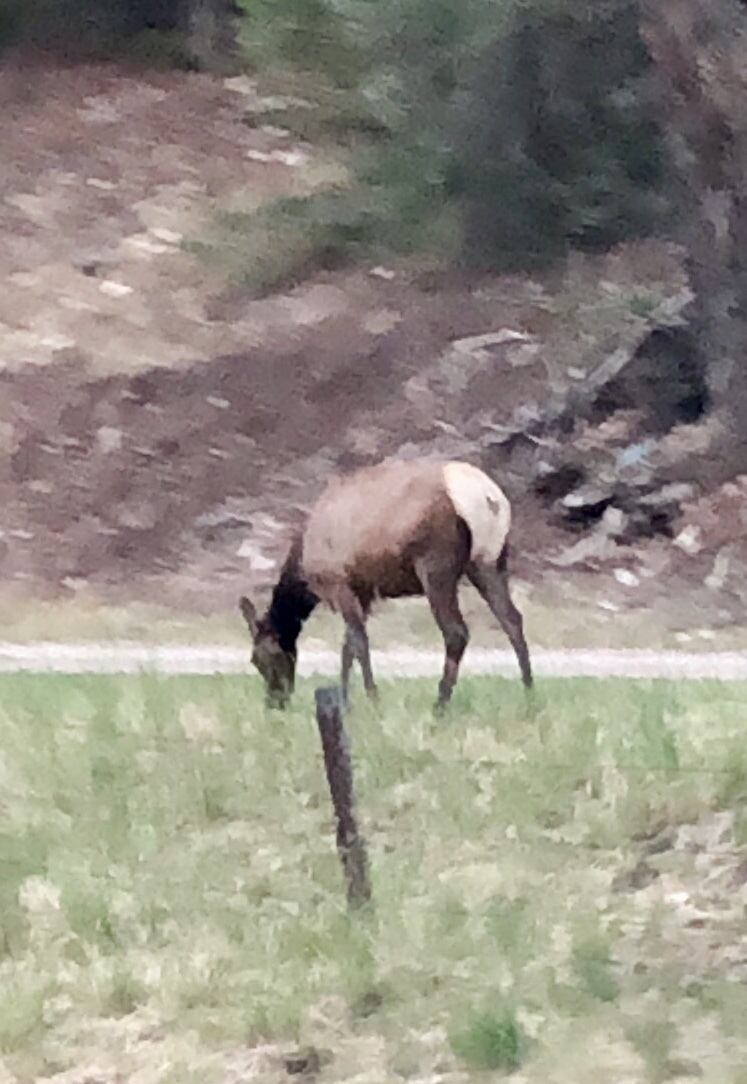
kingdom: Animalia
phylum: Chordata
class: Mammalia
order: Artiodactyla
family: Cervidae
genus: Cervus
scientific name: Cervus elaphus
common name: Red deer
